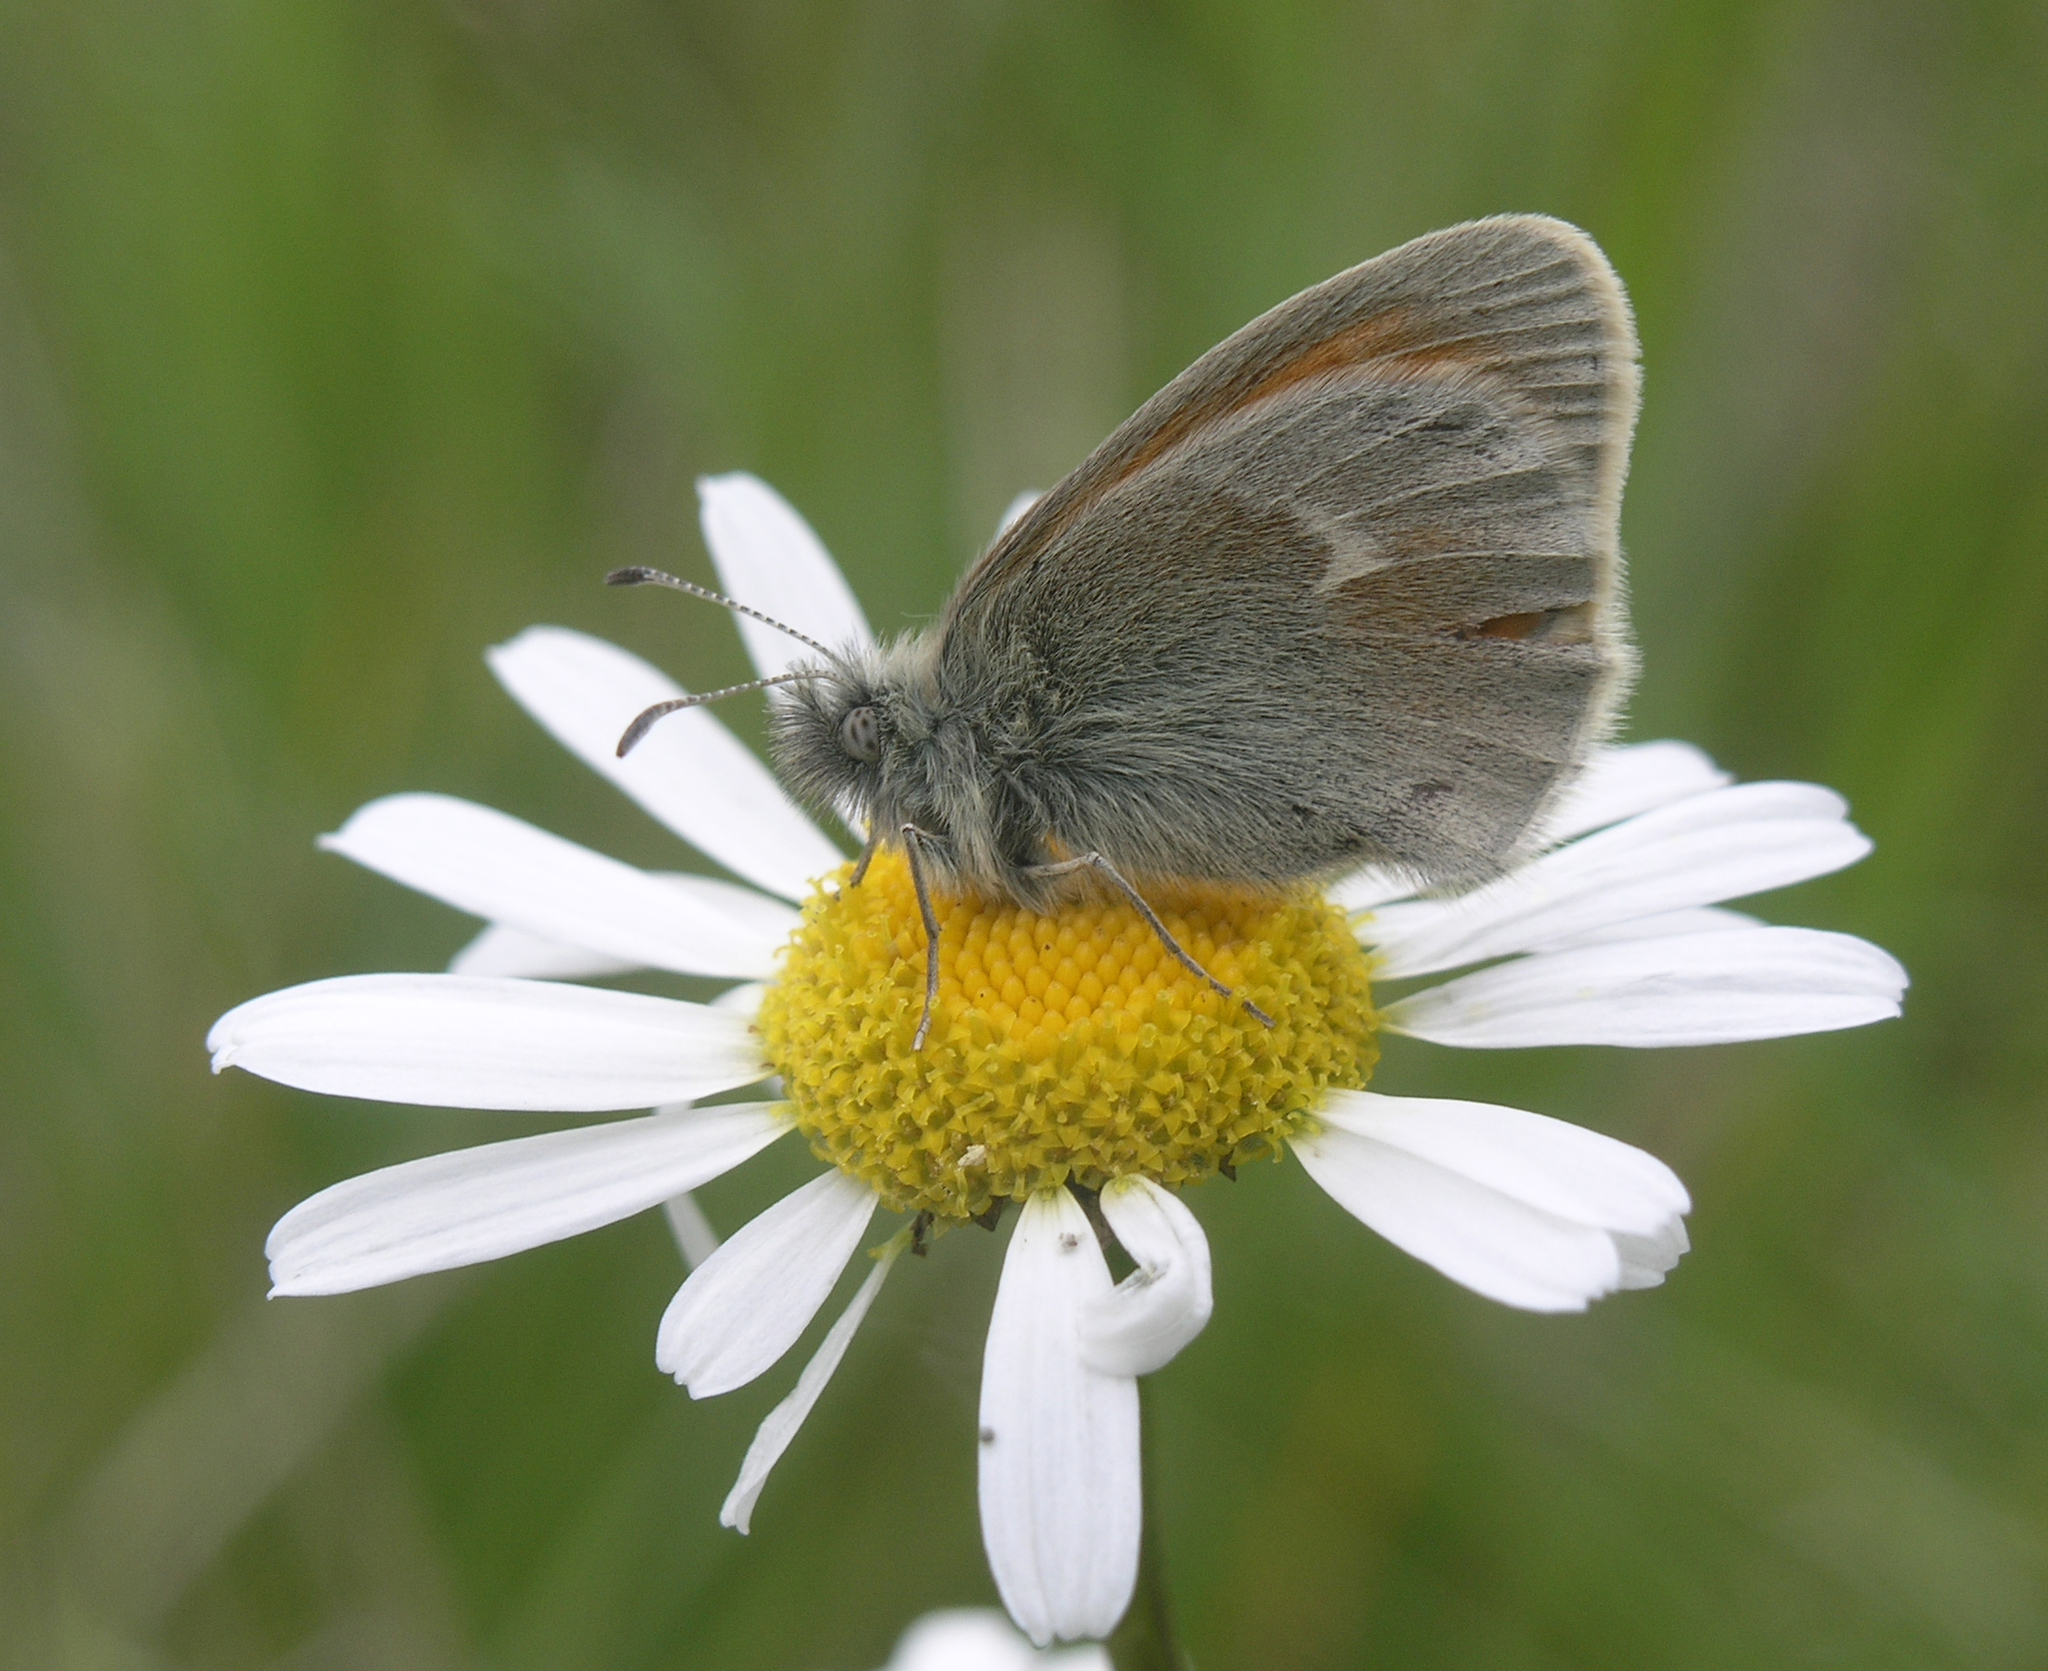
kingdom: Animalia
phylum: Arthropoda
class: Insecta
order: Lepidoptera
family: Nymphalidae
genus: Coenonympha
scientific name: Coenonympha tullia
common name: Large heath
